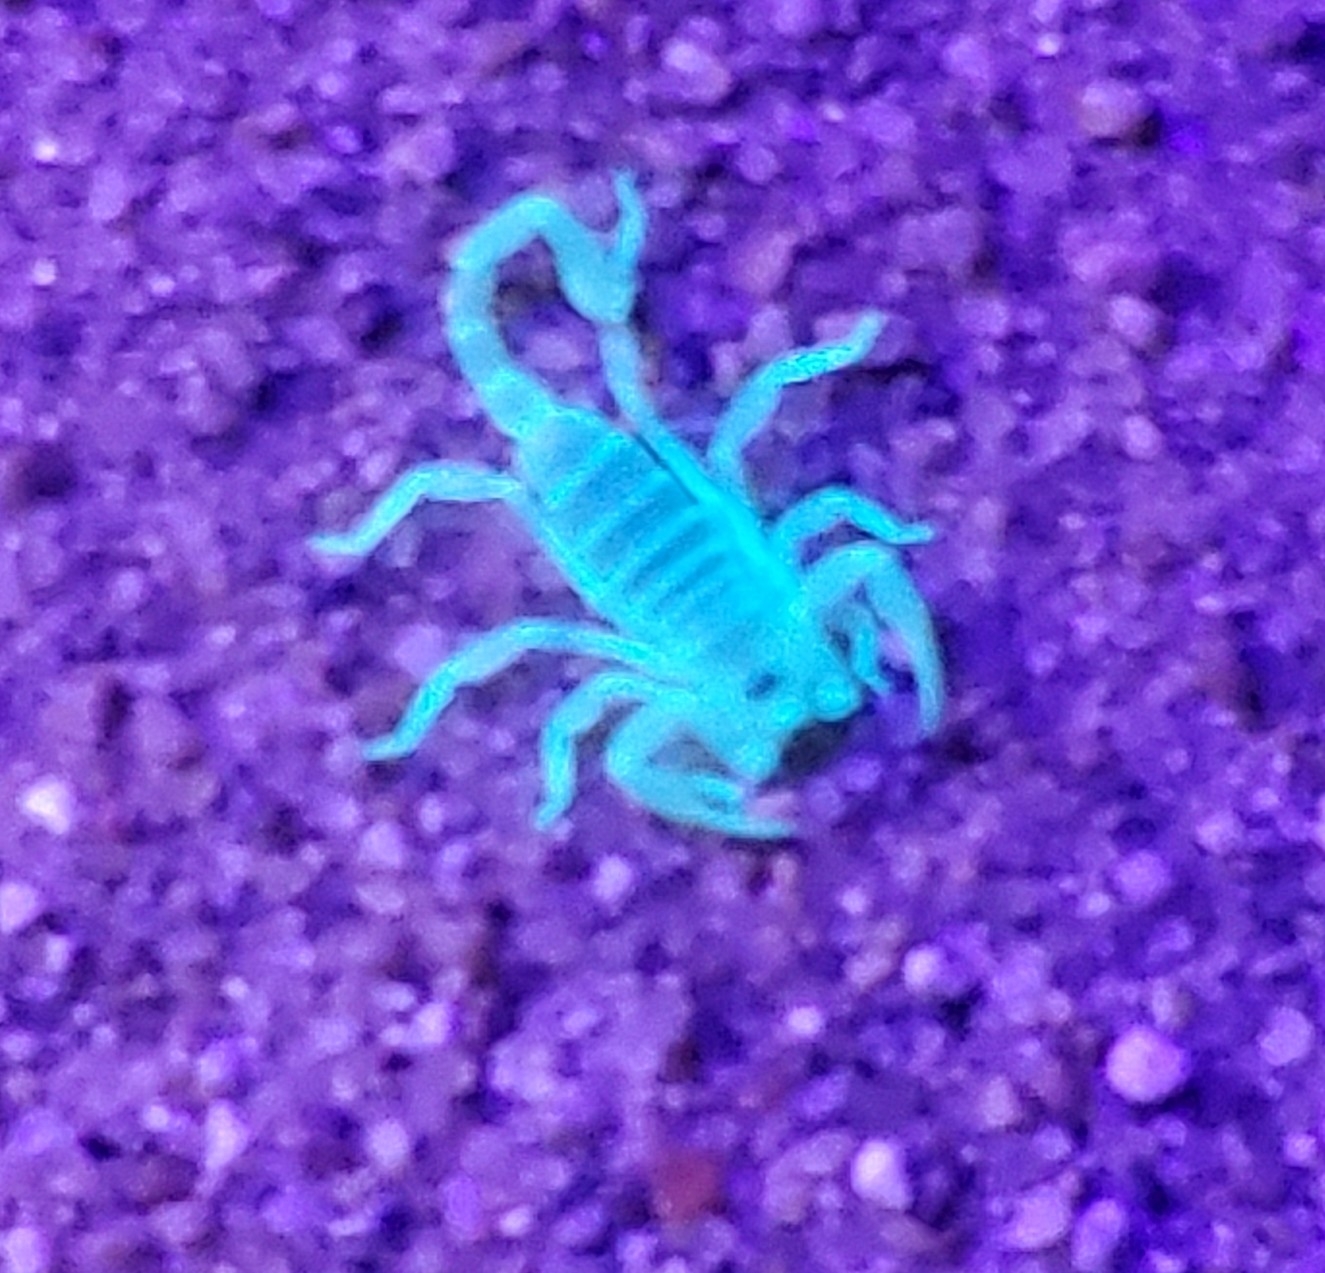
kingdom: Animalia
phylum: Arthropoda
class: Arachnida
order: Scorpiones
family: Vaejovidae
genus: Smeringurus
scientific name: Smeringurus mesaensis
